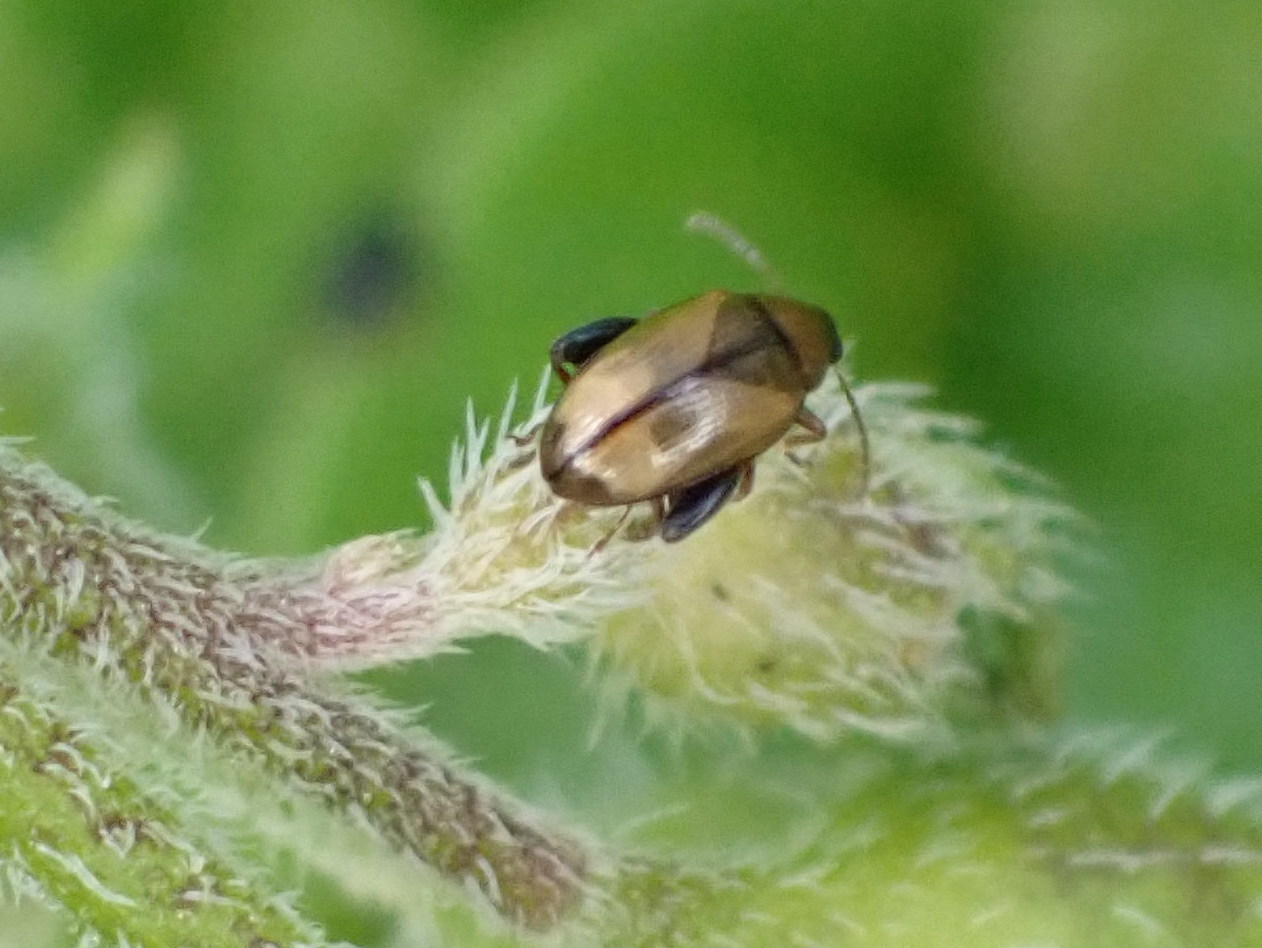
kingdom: Animalia
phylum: Arthropoda
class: Insecta
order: Coleoptera
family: Chrysomelidae
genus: Psylliodes
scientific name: Psylliodes affinis
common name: Potato flea beetle
